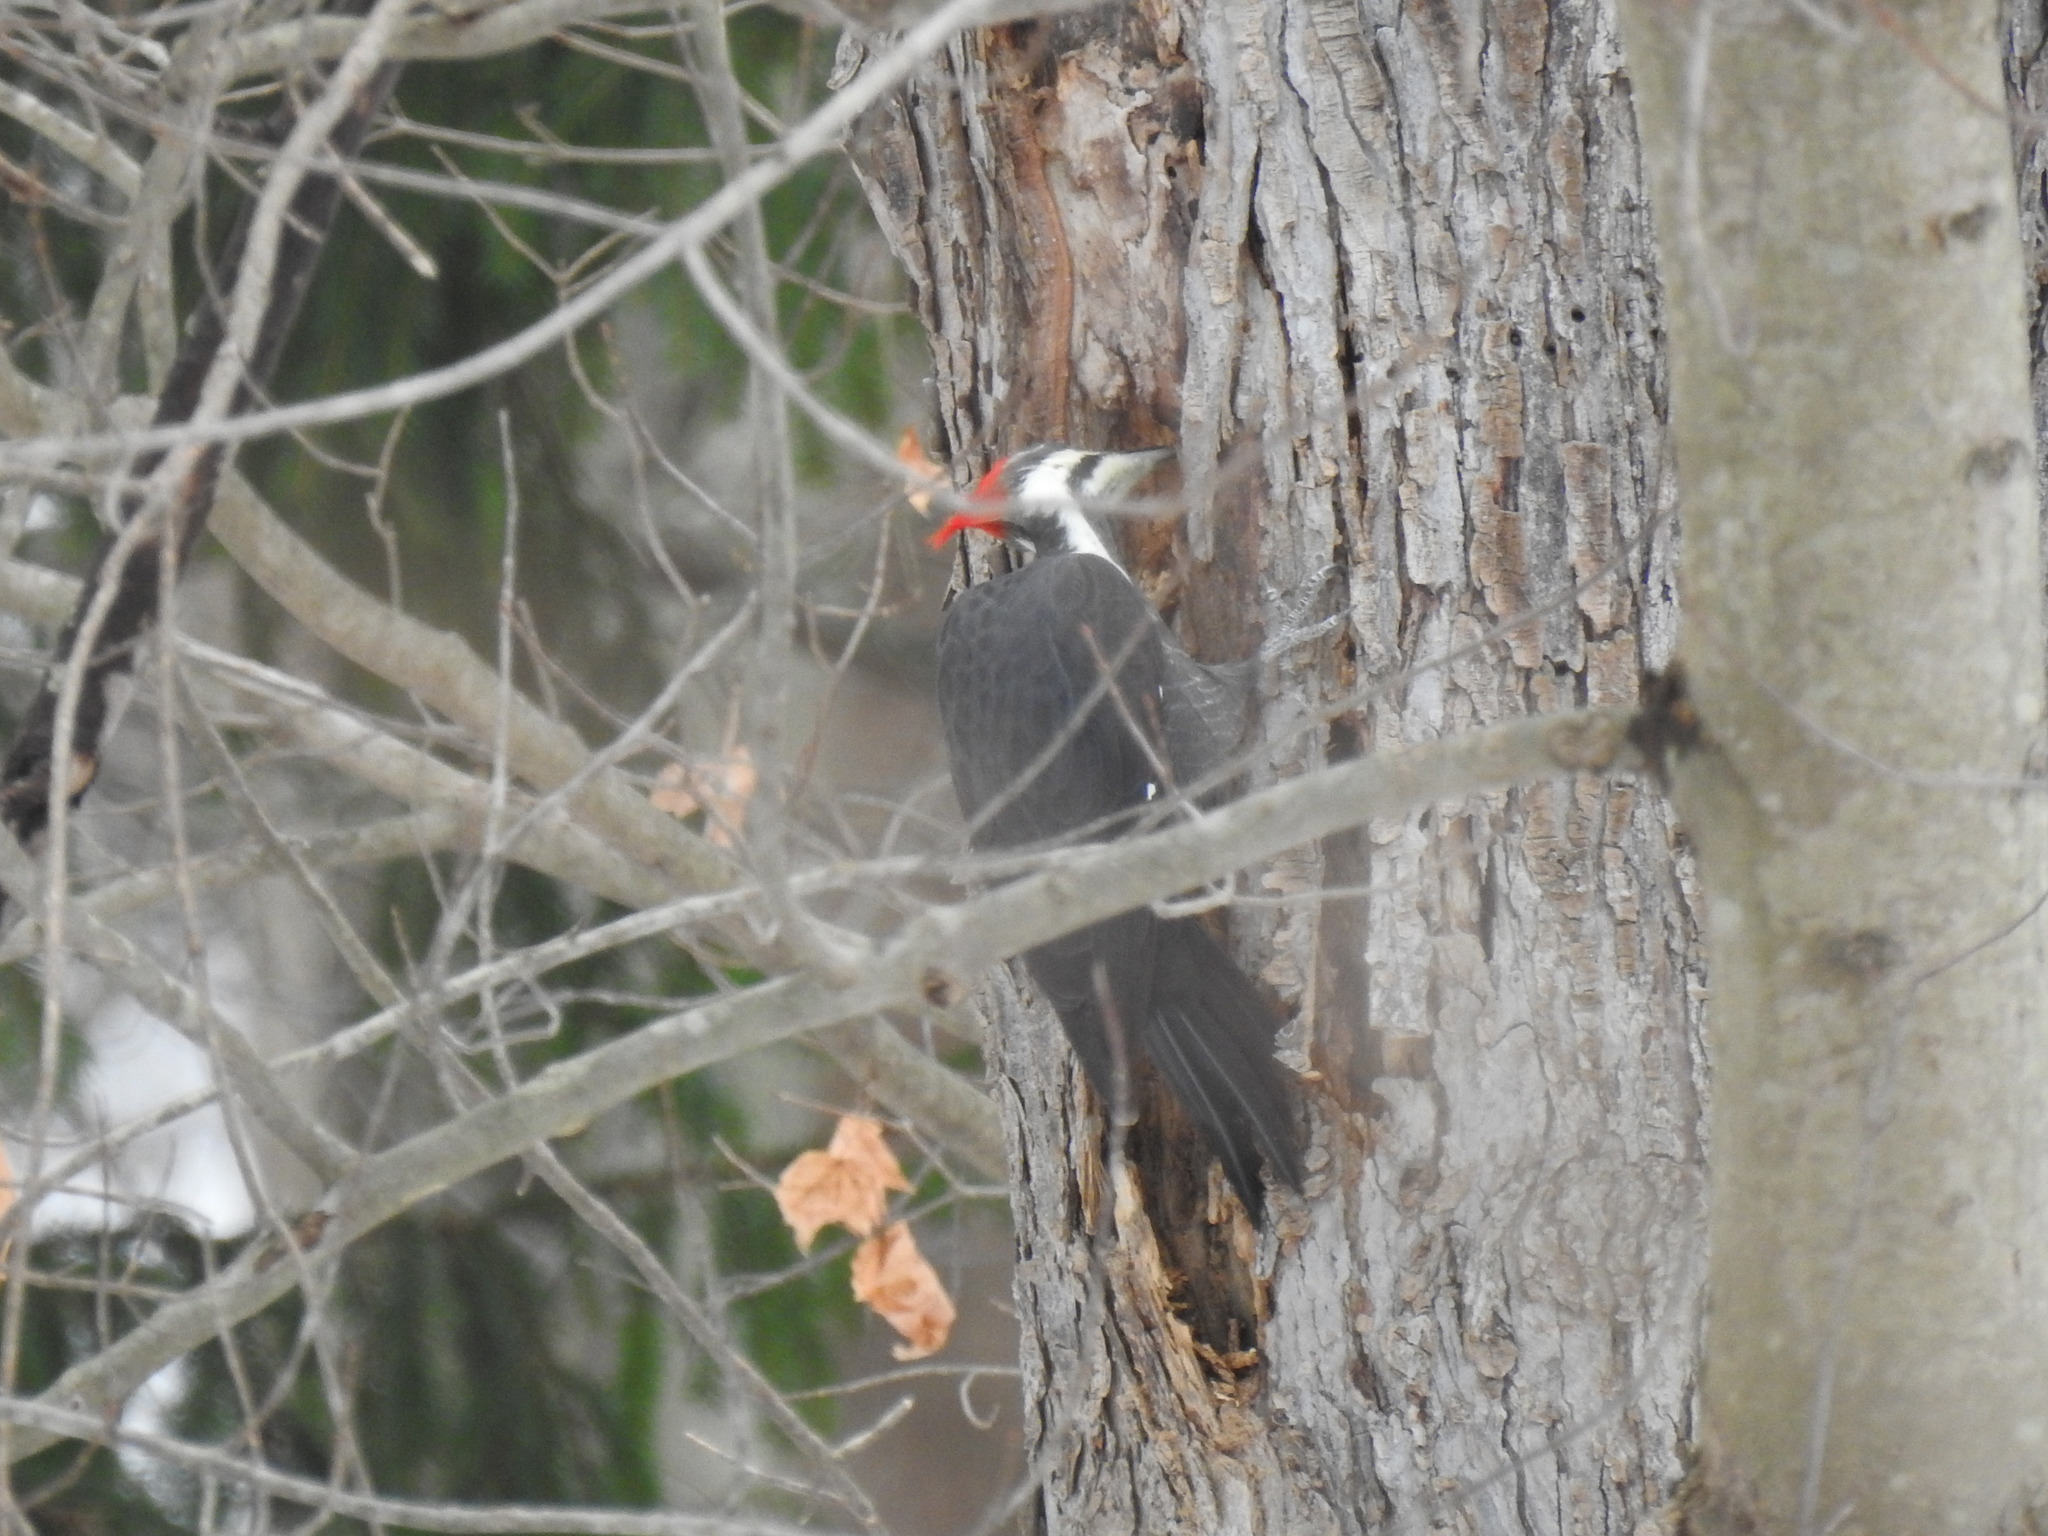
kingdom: Animalia
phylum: Chordata
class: Aves
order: Piciformes
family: Picidae
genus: Dryocopus
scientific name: Dryocopus pileatus
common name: Pileated woodpecker
